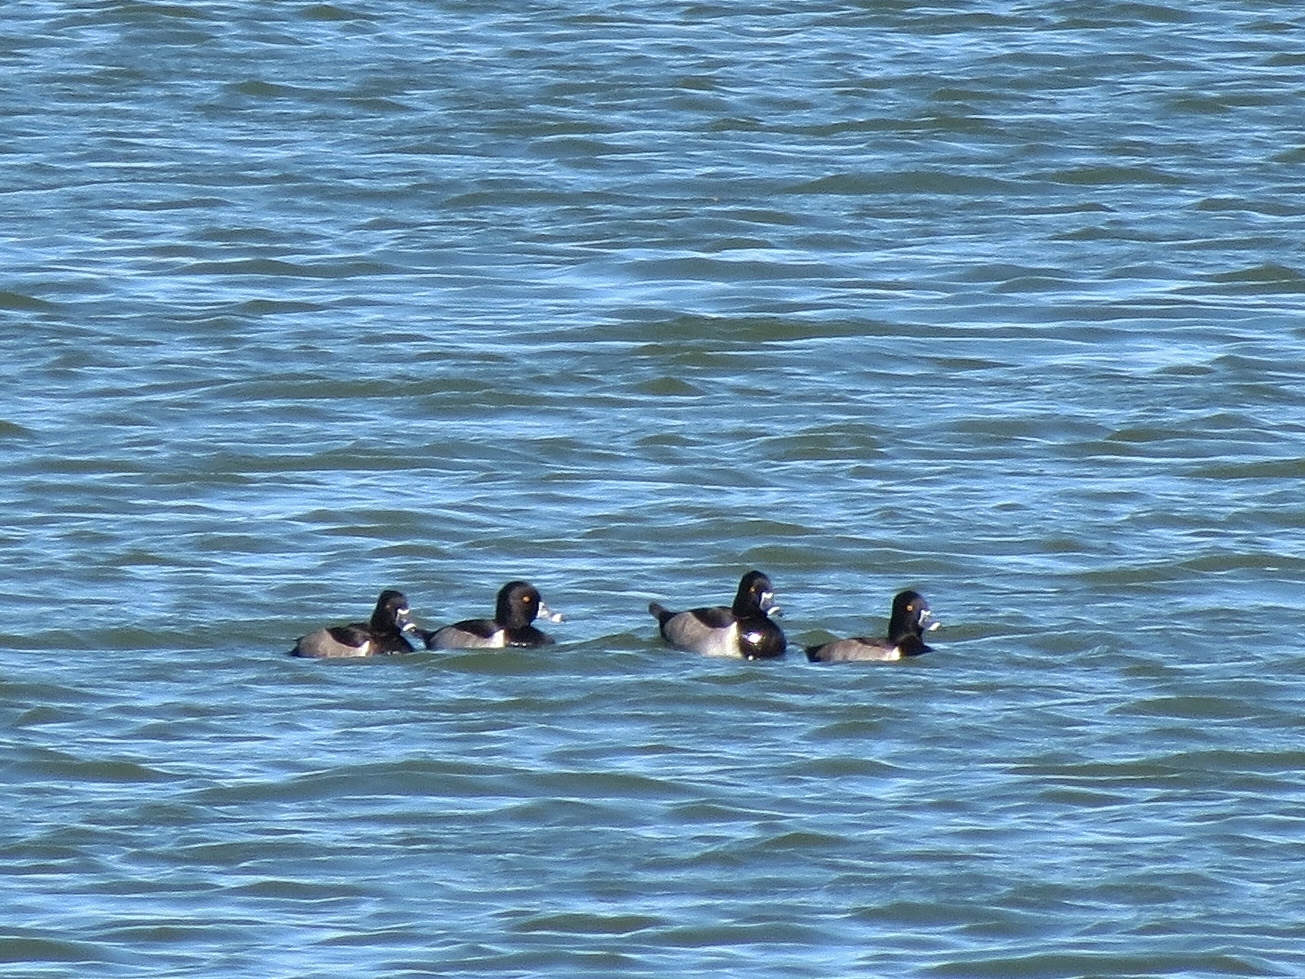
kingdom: Animalia
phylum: Chordata
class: Aves
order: Anseriformes
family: Anatidae
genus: Aythya
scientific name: Aythya collaris
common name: Ring-necked duck
